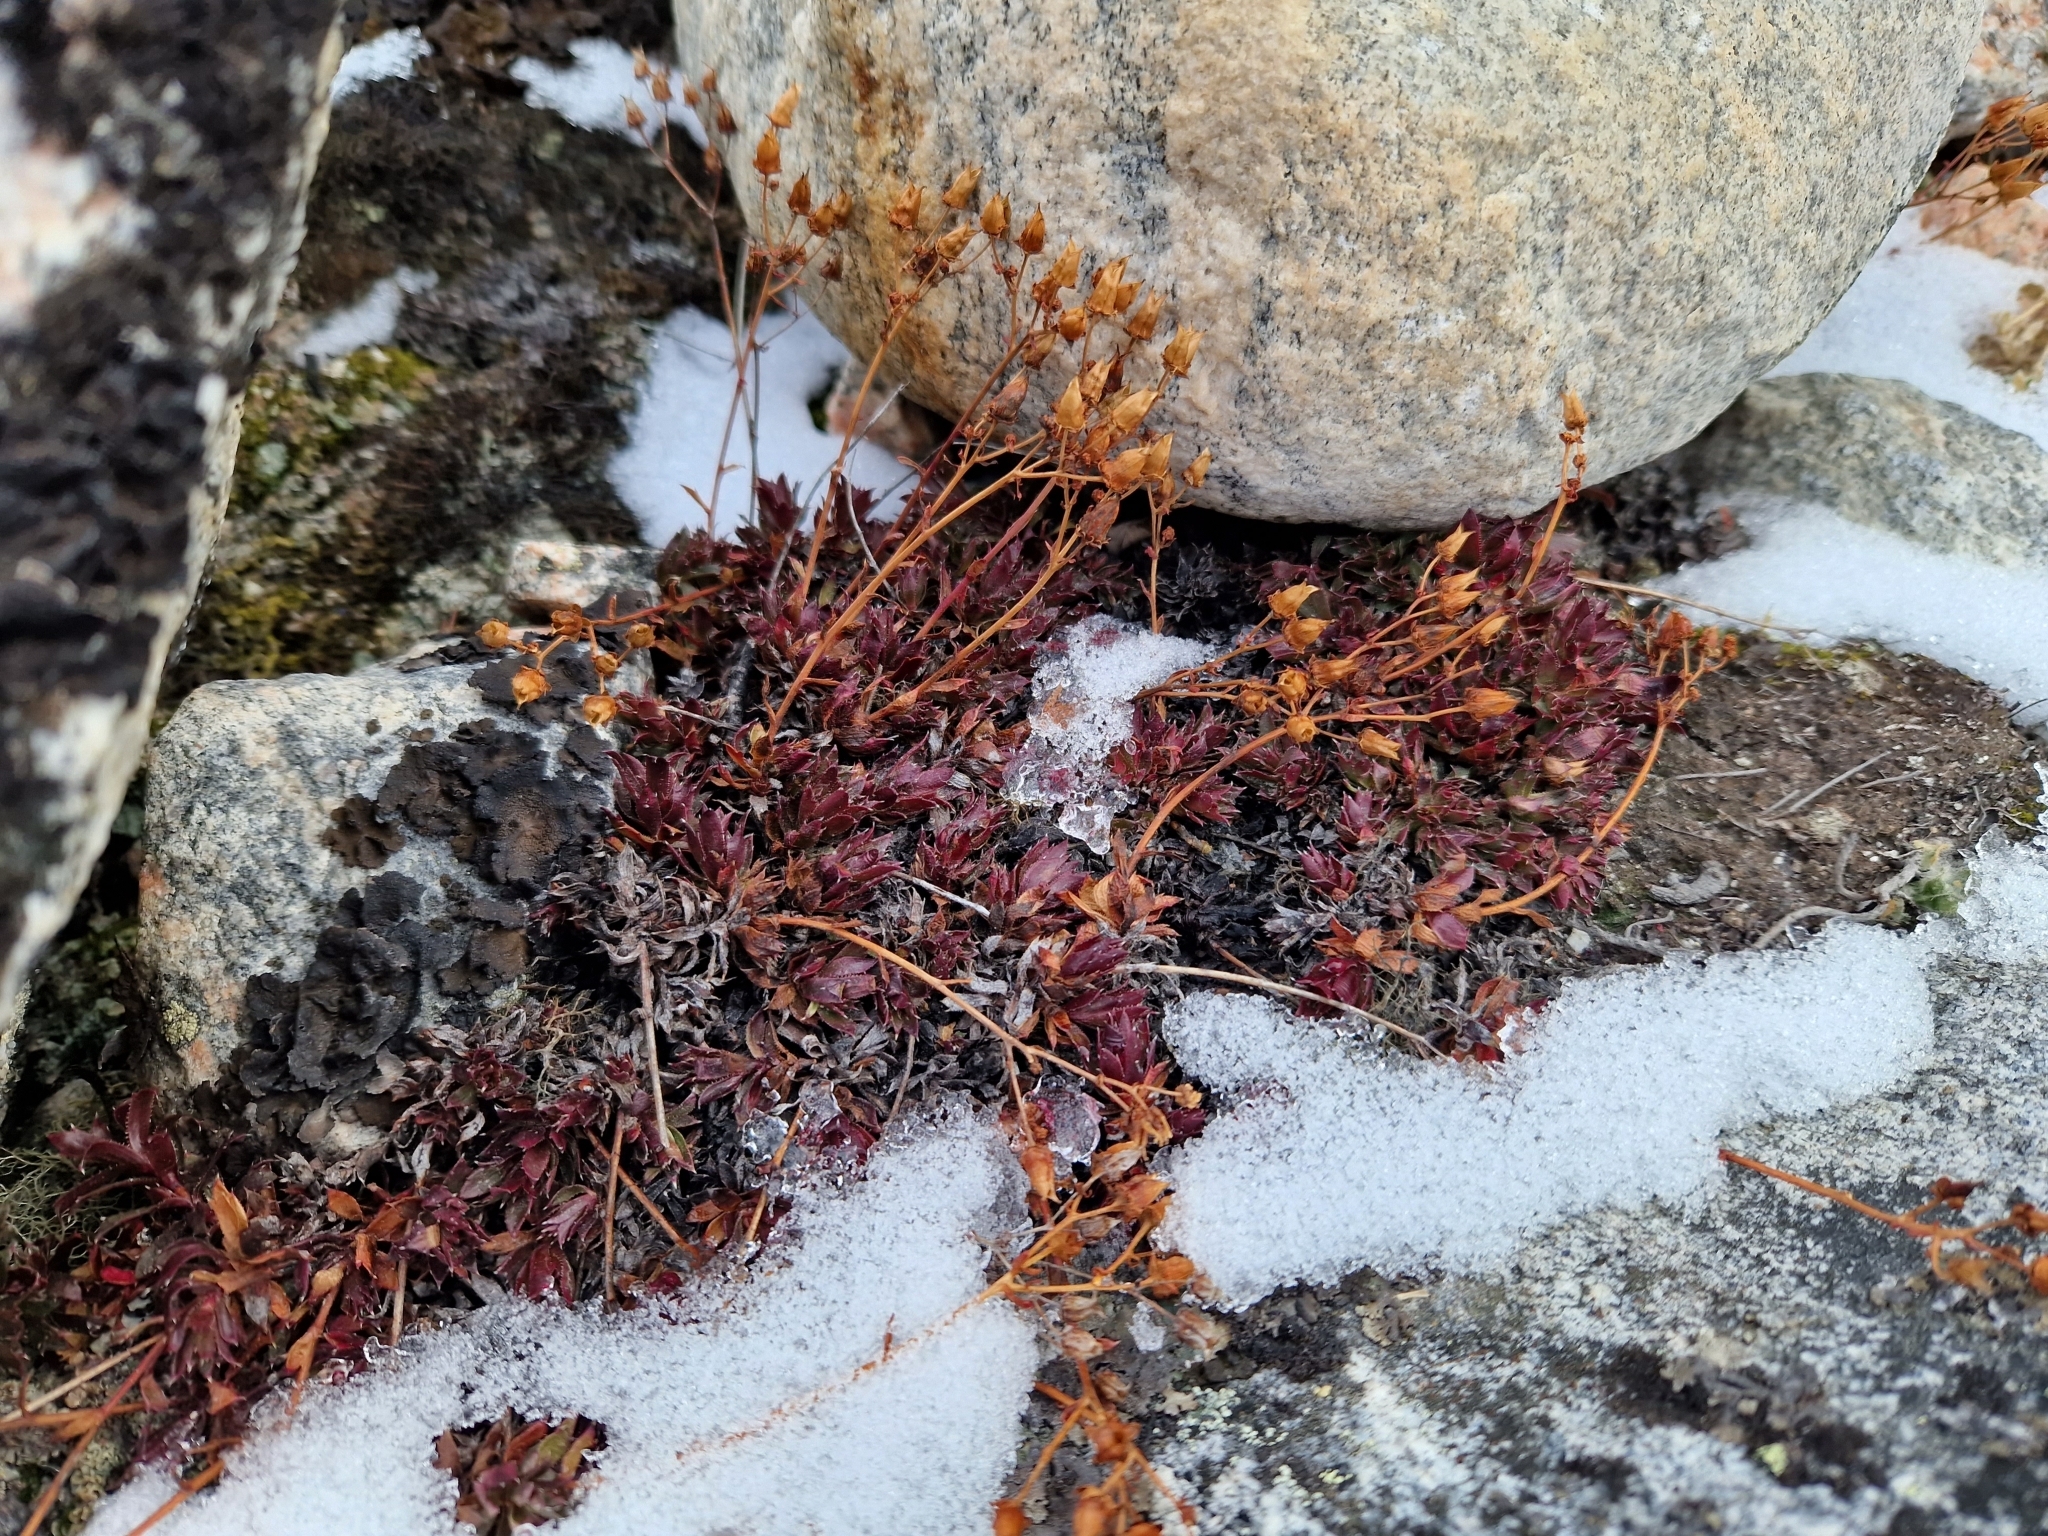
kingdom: Plantae
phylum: Tracheophyta
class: Magnoliopsida
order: Saxifragales
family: Saxifragaceae
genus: Saxifraga
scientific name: Saxifraga tricuspidata
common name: Prickly saxifrage
